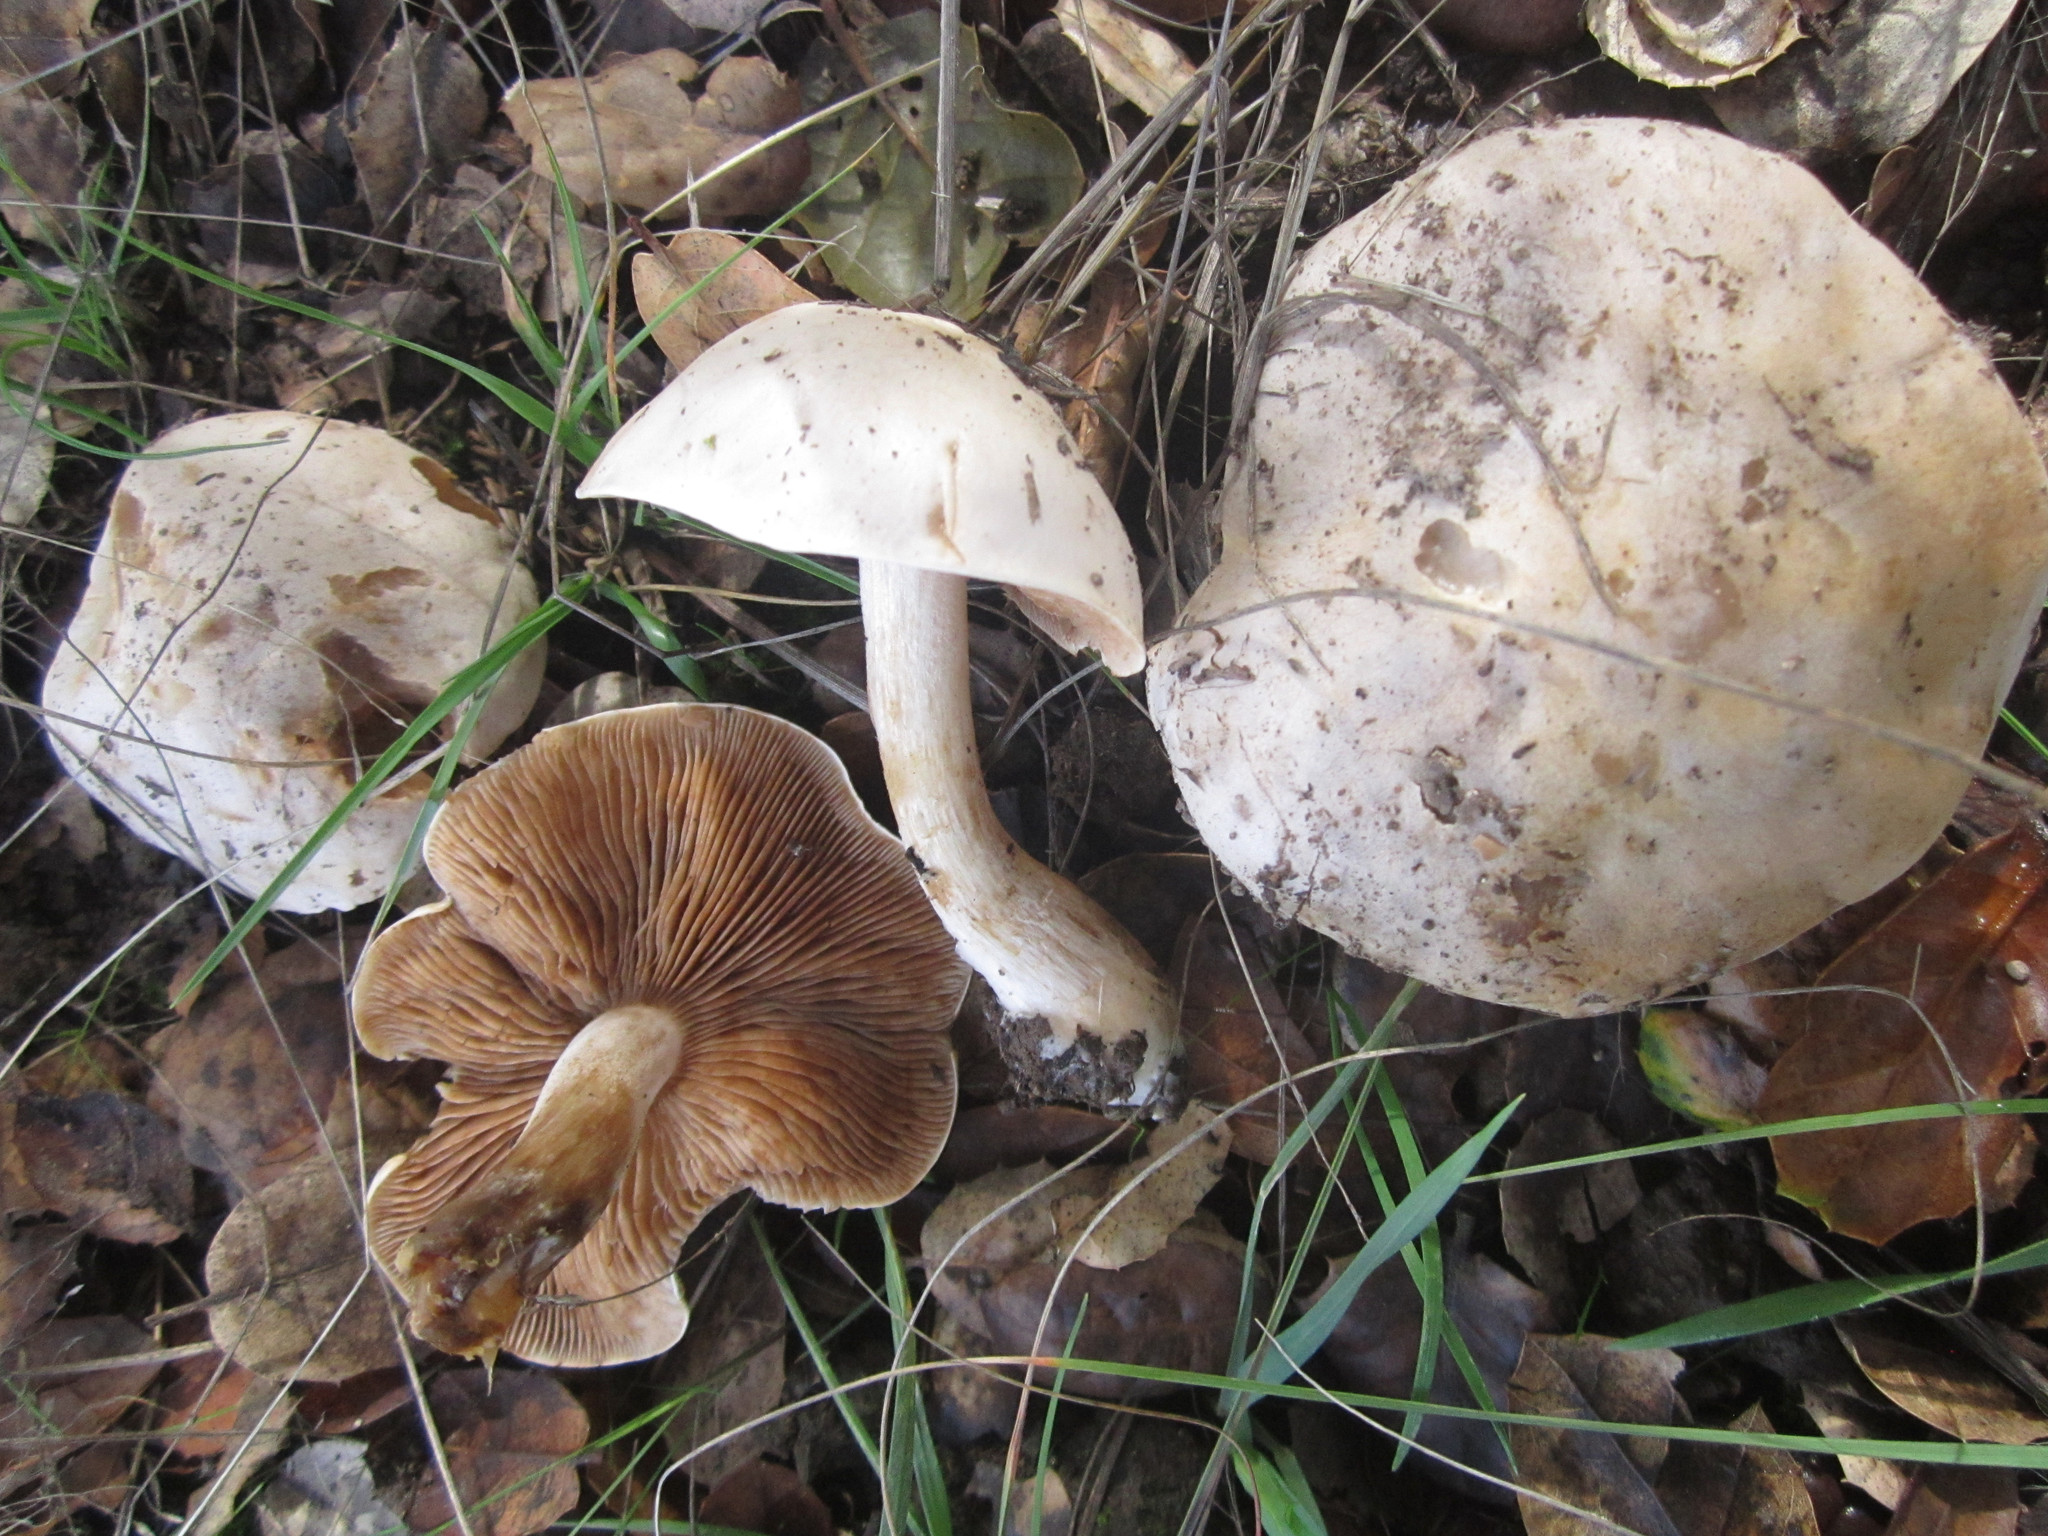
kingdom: Fungi
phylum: Basidiomycota
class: Agaricomycetes
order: Agaricales
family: Hymenogastraceae
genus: Hebeloma
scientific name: Hebeloma crustuliniforme
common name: Poison pie
